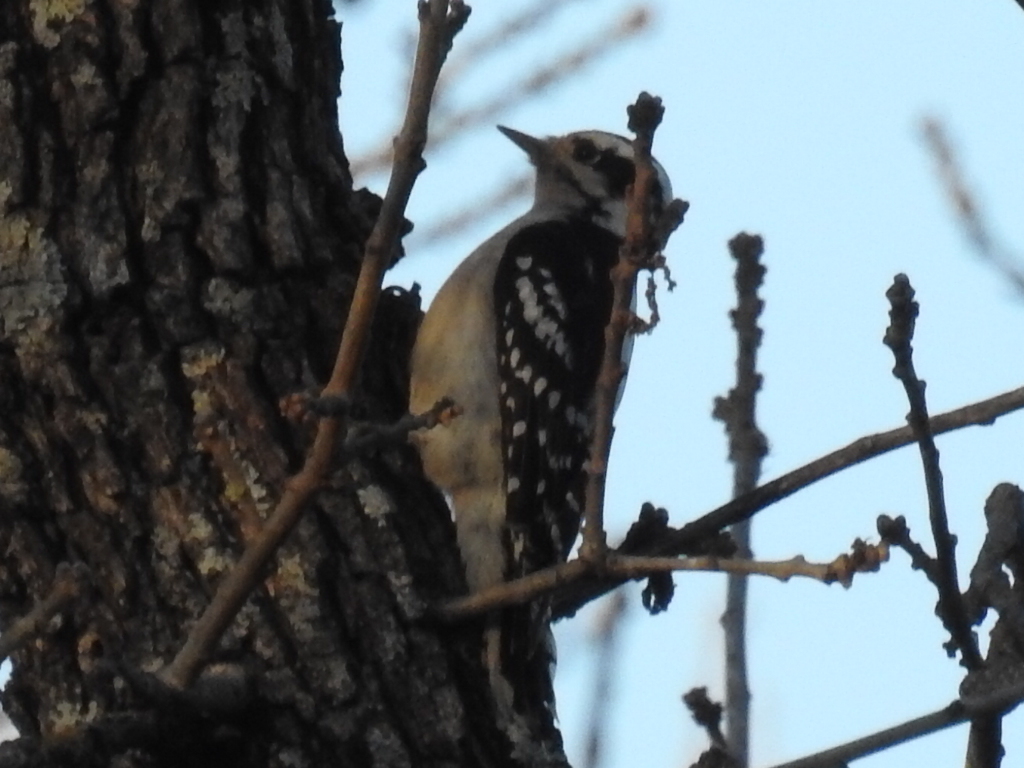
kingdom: Animalia
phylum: Chordata
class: Aves
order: Piciformes
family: Picidae
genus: Dryobates
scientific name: Dryobates pubescens
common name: Downy woodpecker
